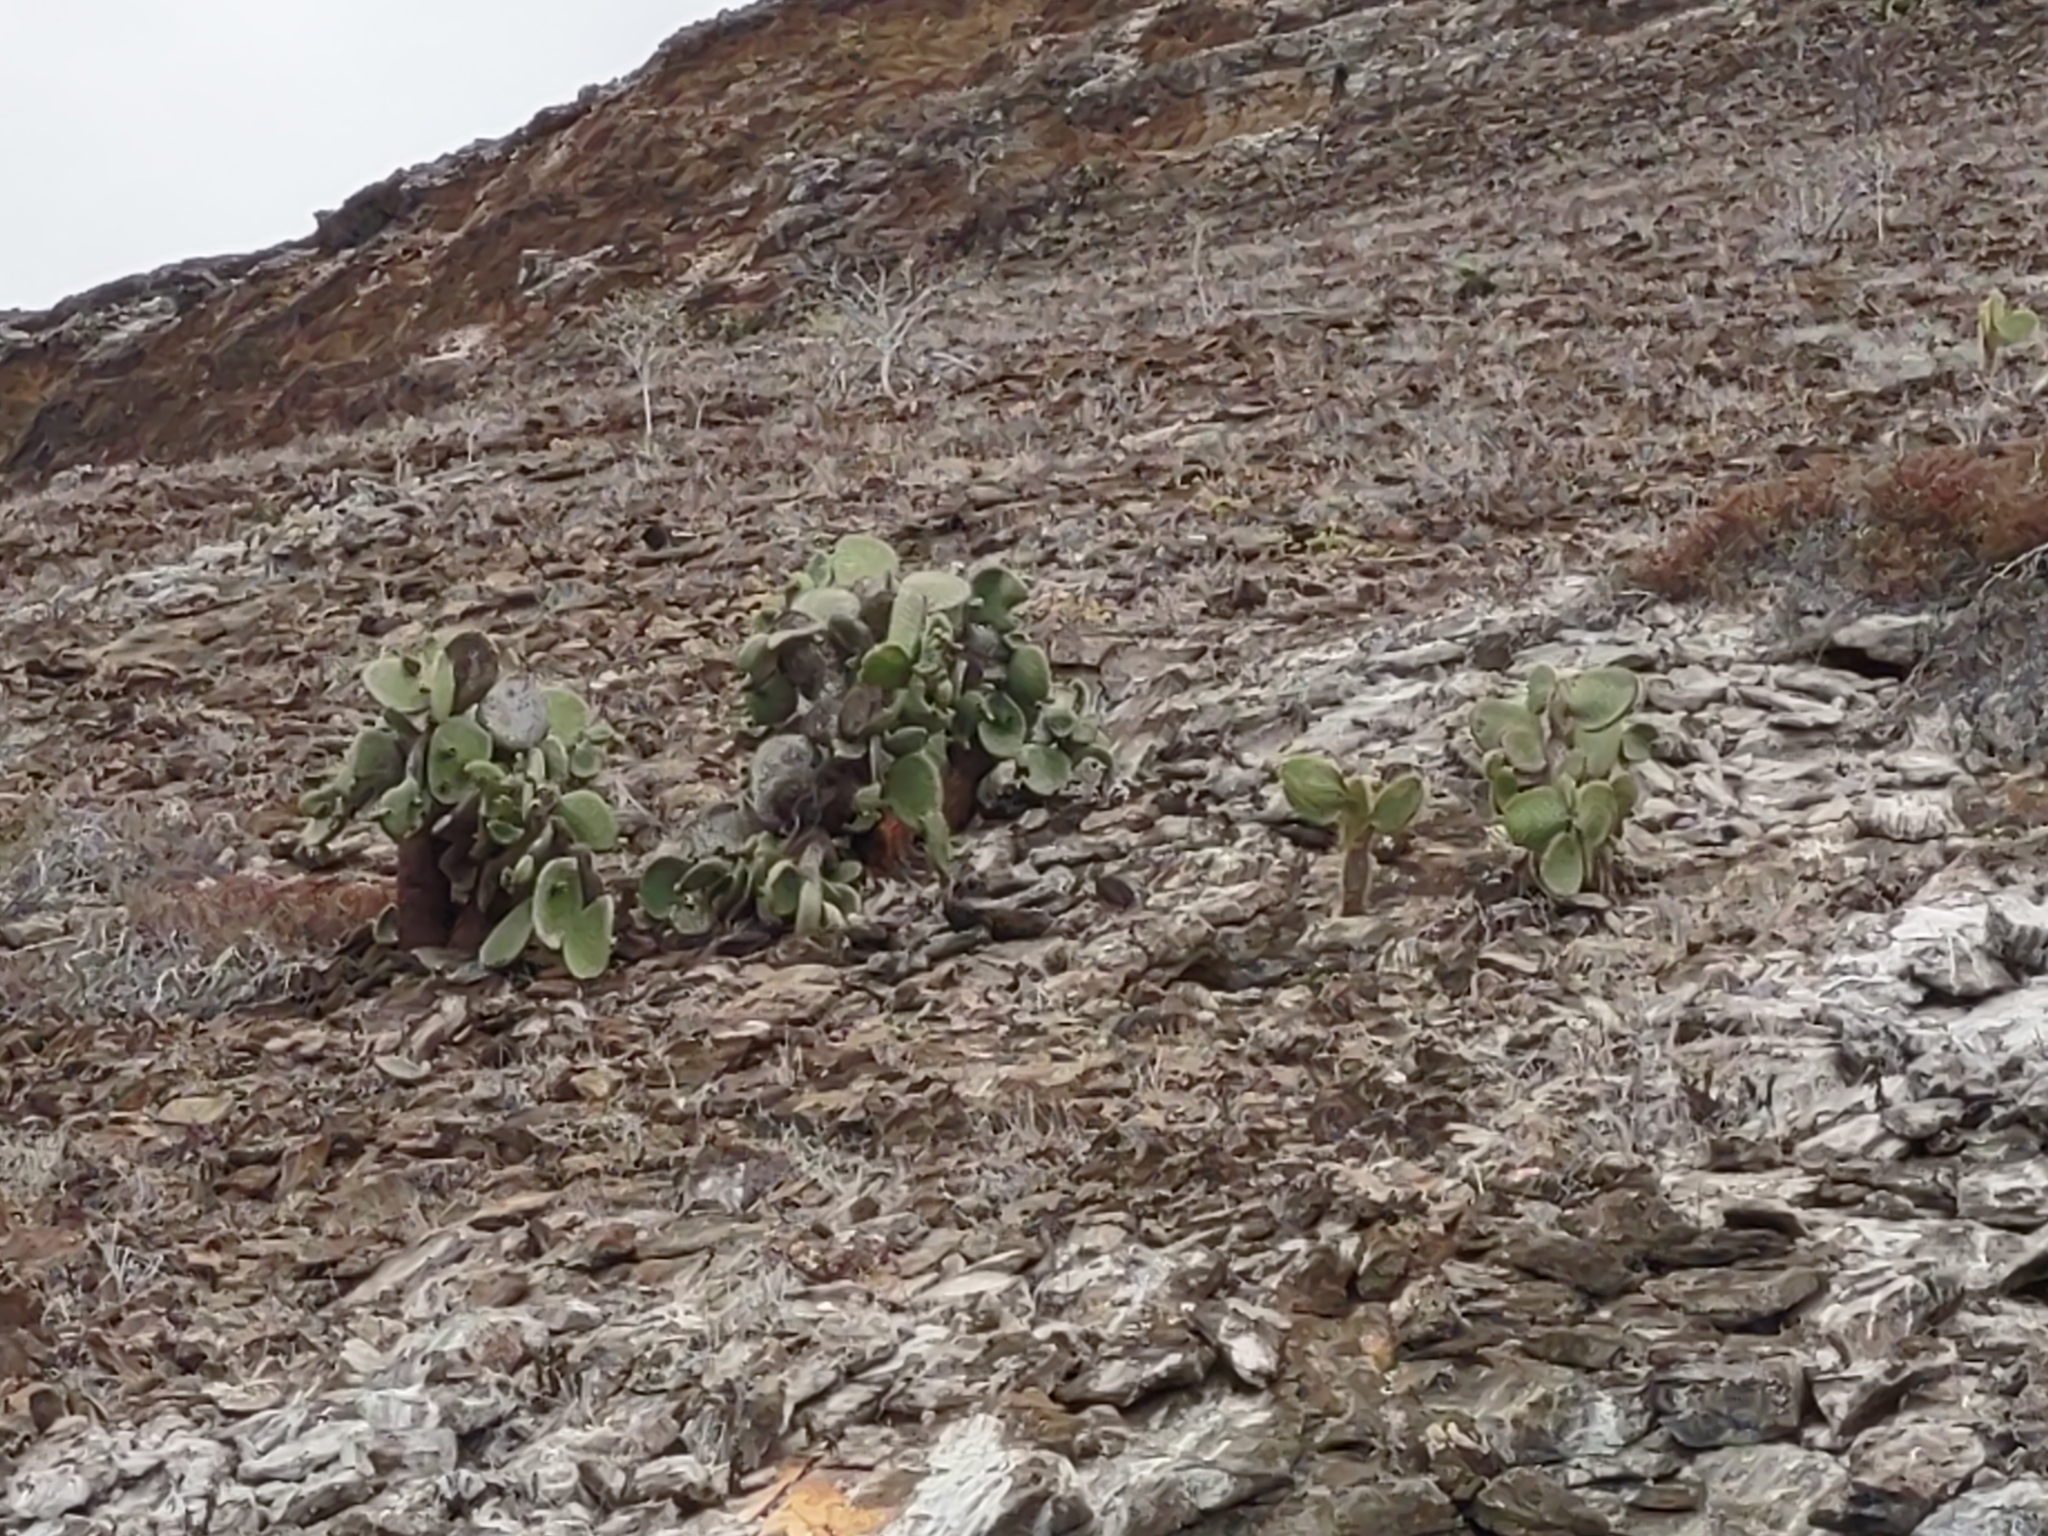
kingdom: Plantae
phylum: Tracheophyta
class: Magnoliopsida
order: Caryophyllales
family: Cactaceae
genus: Opuntia
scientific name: Opuntia galapageia
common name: Galápagos prickly pear
